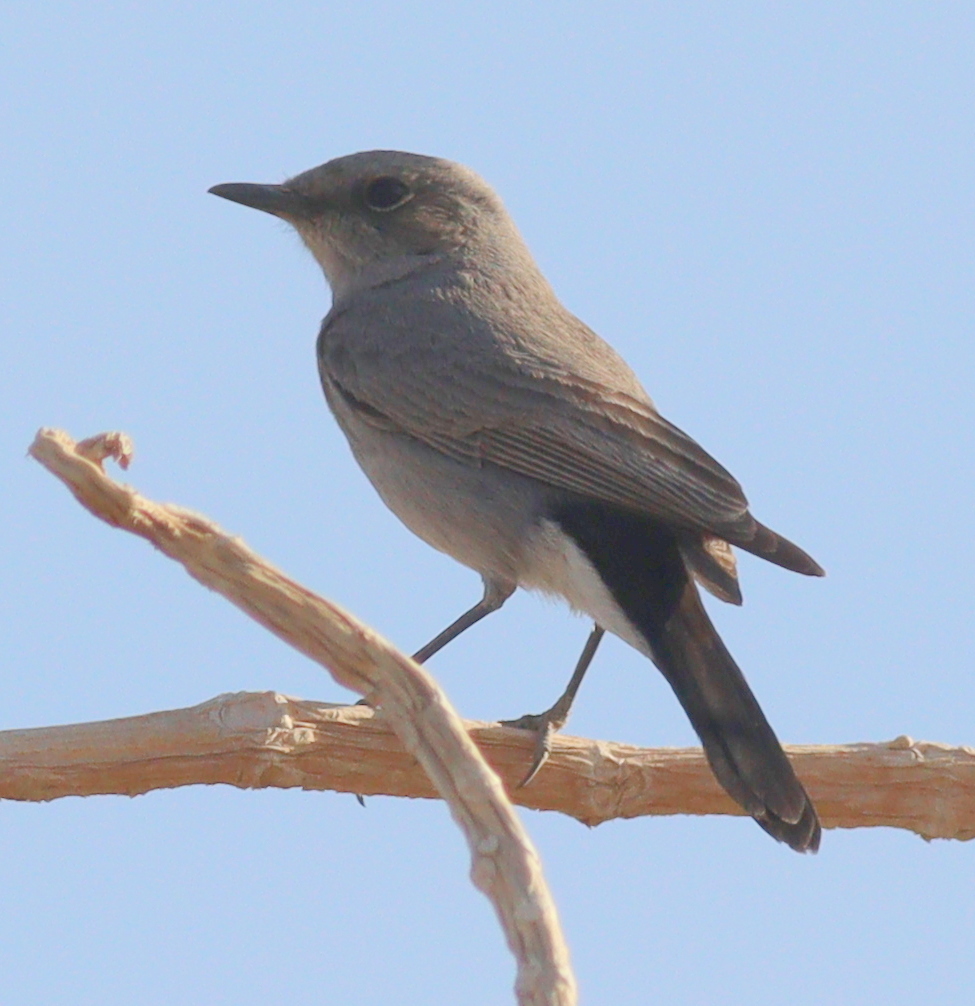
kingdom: Animalia
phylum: Chordata
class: Aves
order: Passeriformes
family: Muscicapidae
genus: Oenanthe
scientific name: Oenanthe melanura
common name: Blackstart
